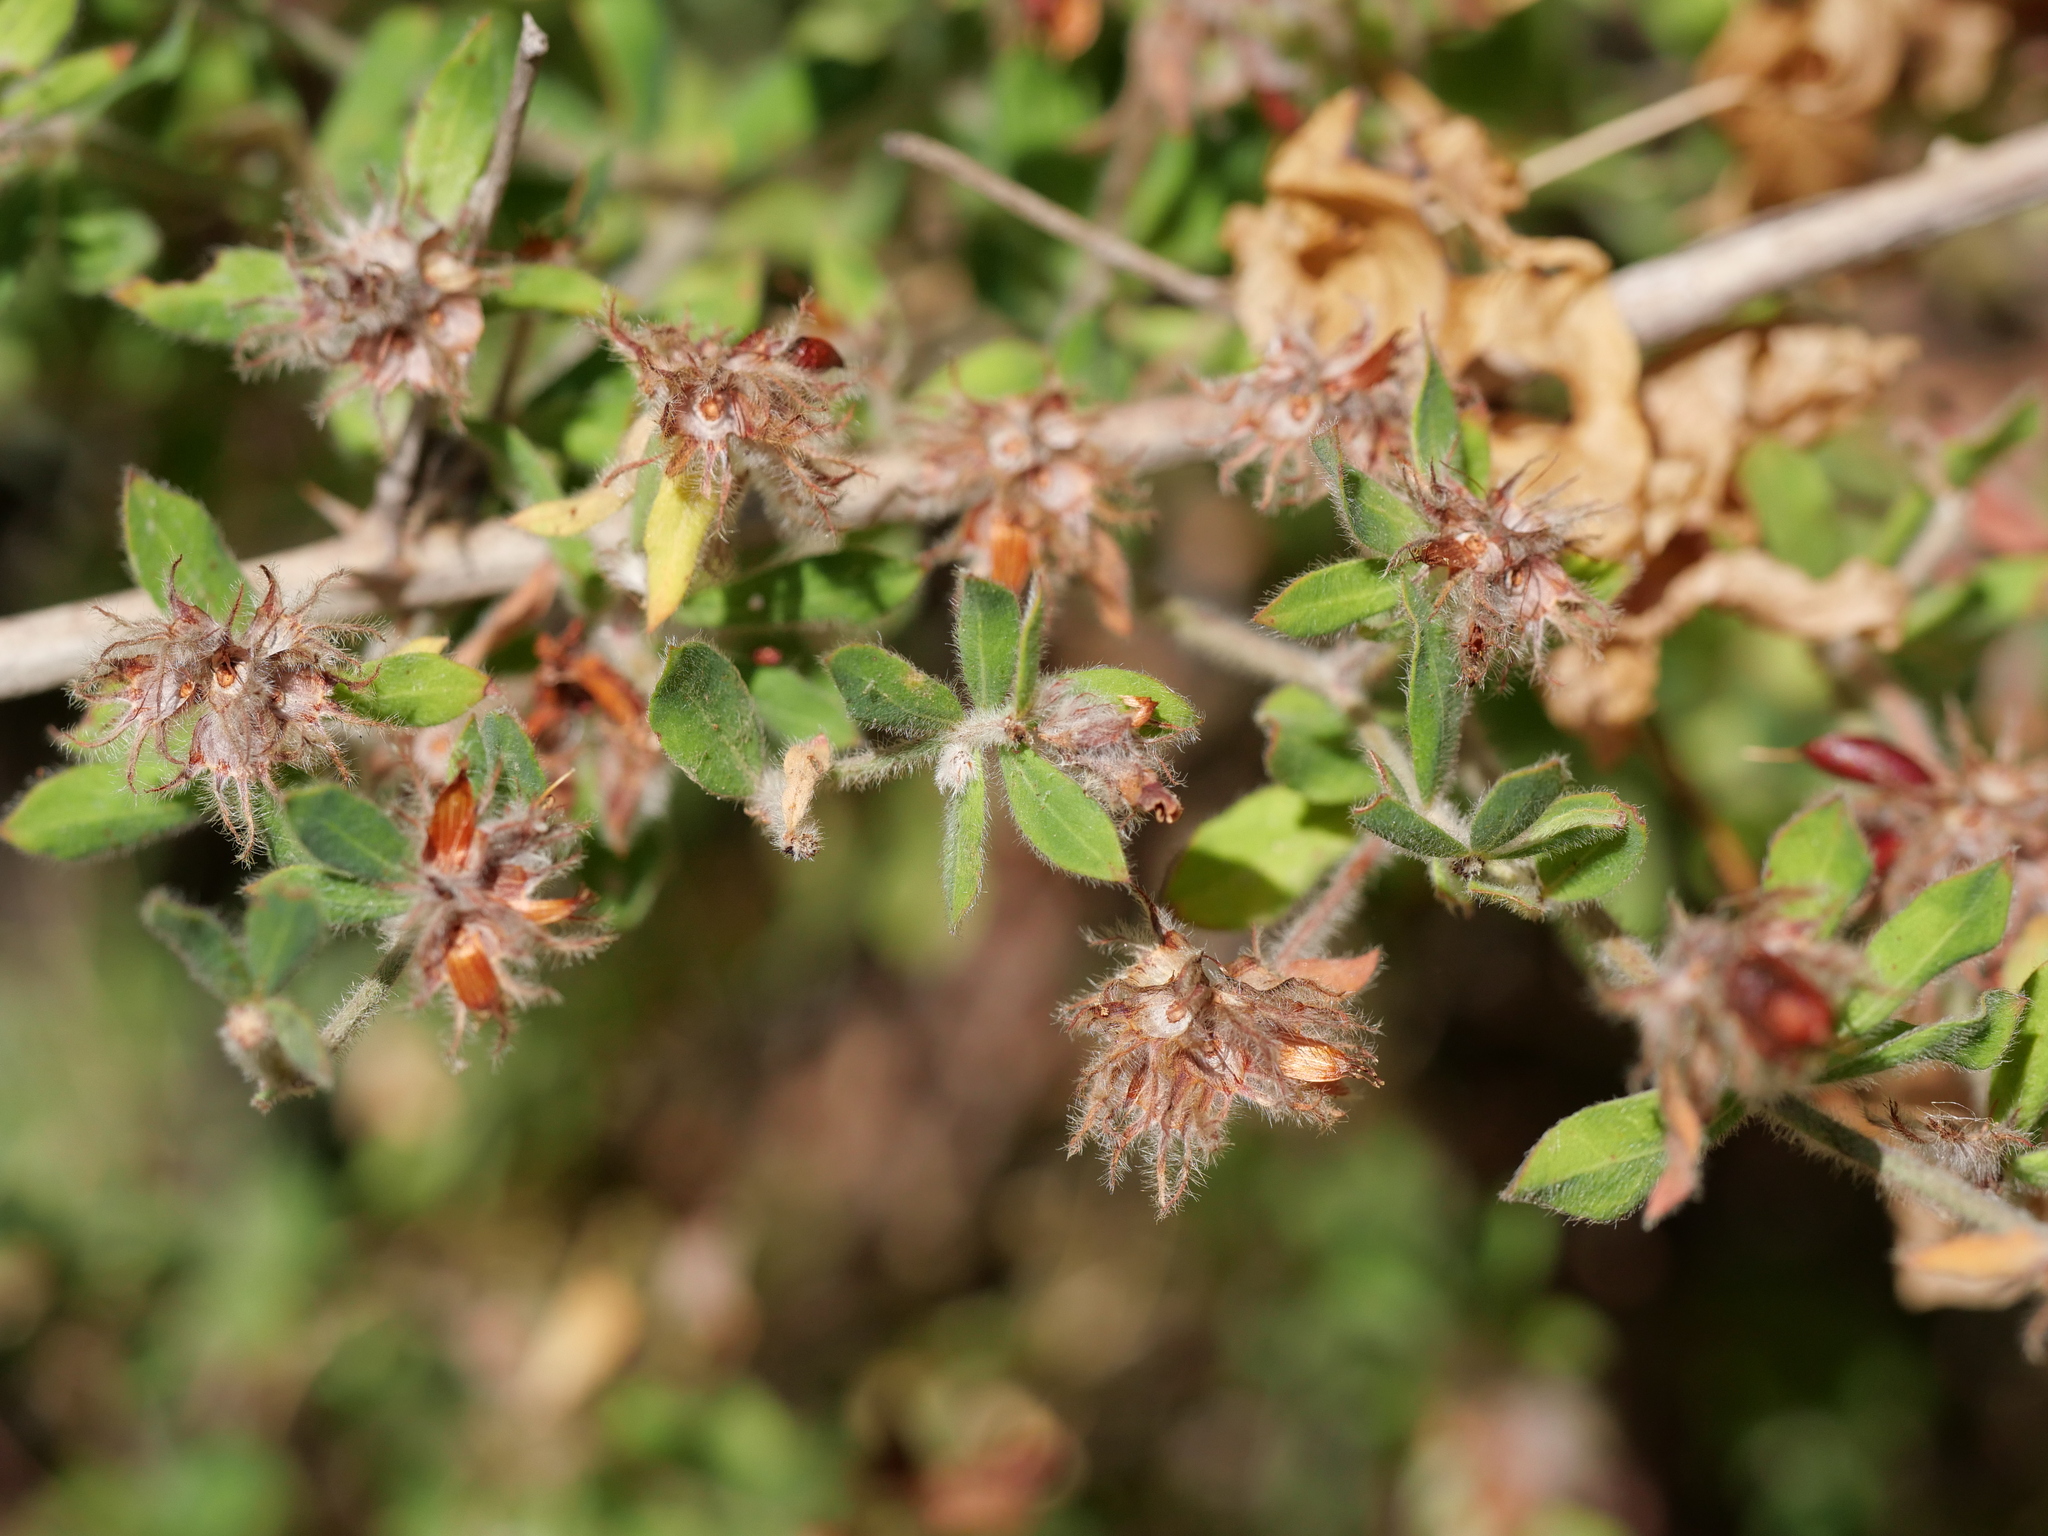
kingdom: Plantae
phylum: Tracheophyta
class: Magnoliopsida
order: Fabales
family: Fabaceae
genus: Lotus
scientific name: Lotus hirsutus
